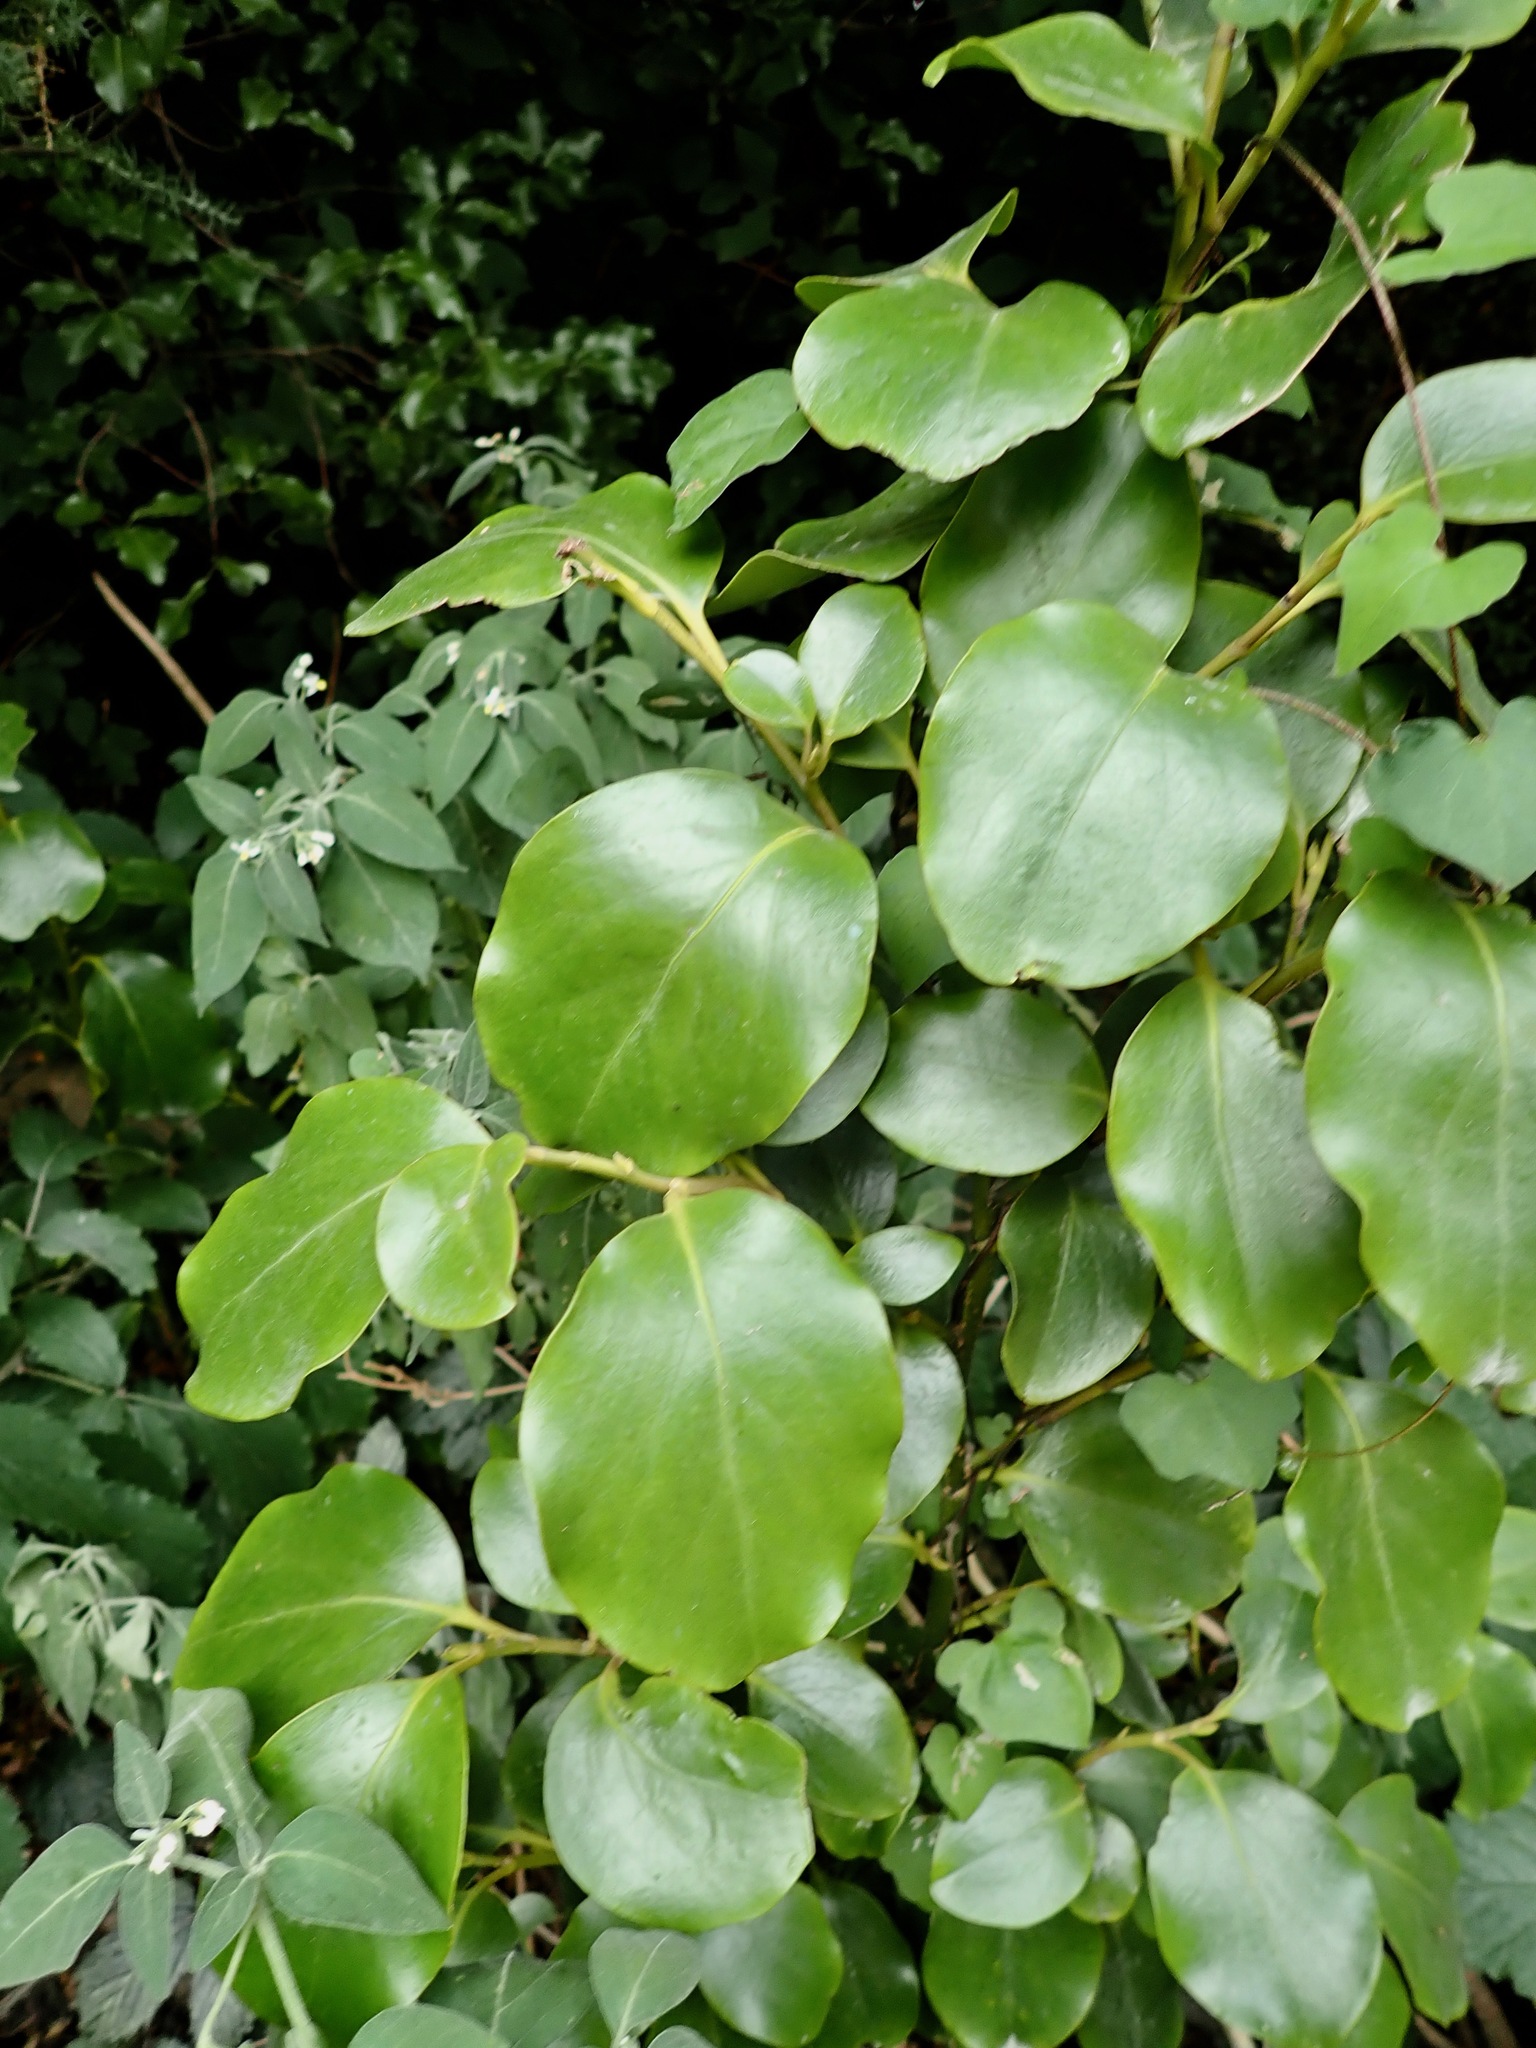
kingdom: Plantae
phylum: Tracheophyta
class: Magnoliopsida
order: Apiales
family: Griseliniaceae
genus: Griselinia
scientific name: Griselinia littoralis
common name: New zealand broadleaf
